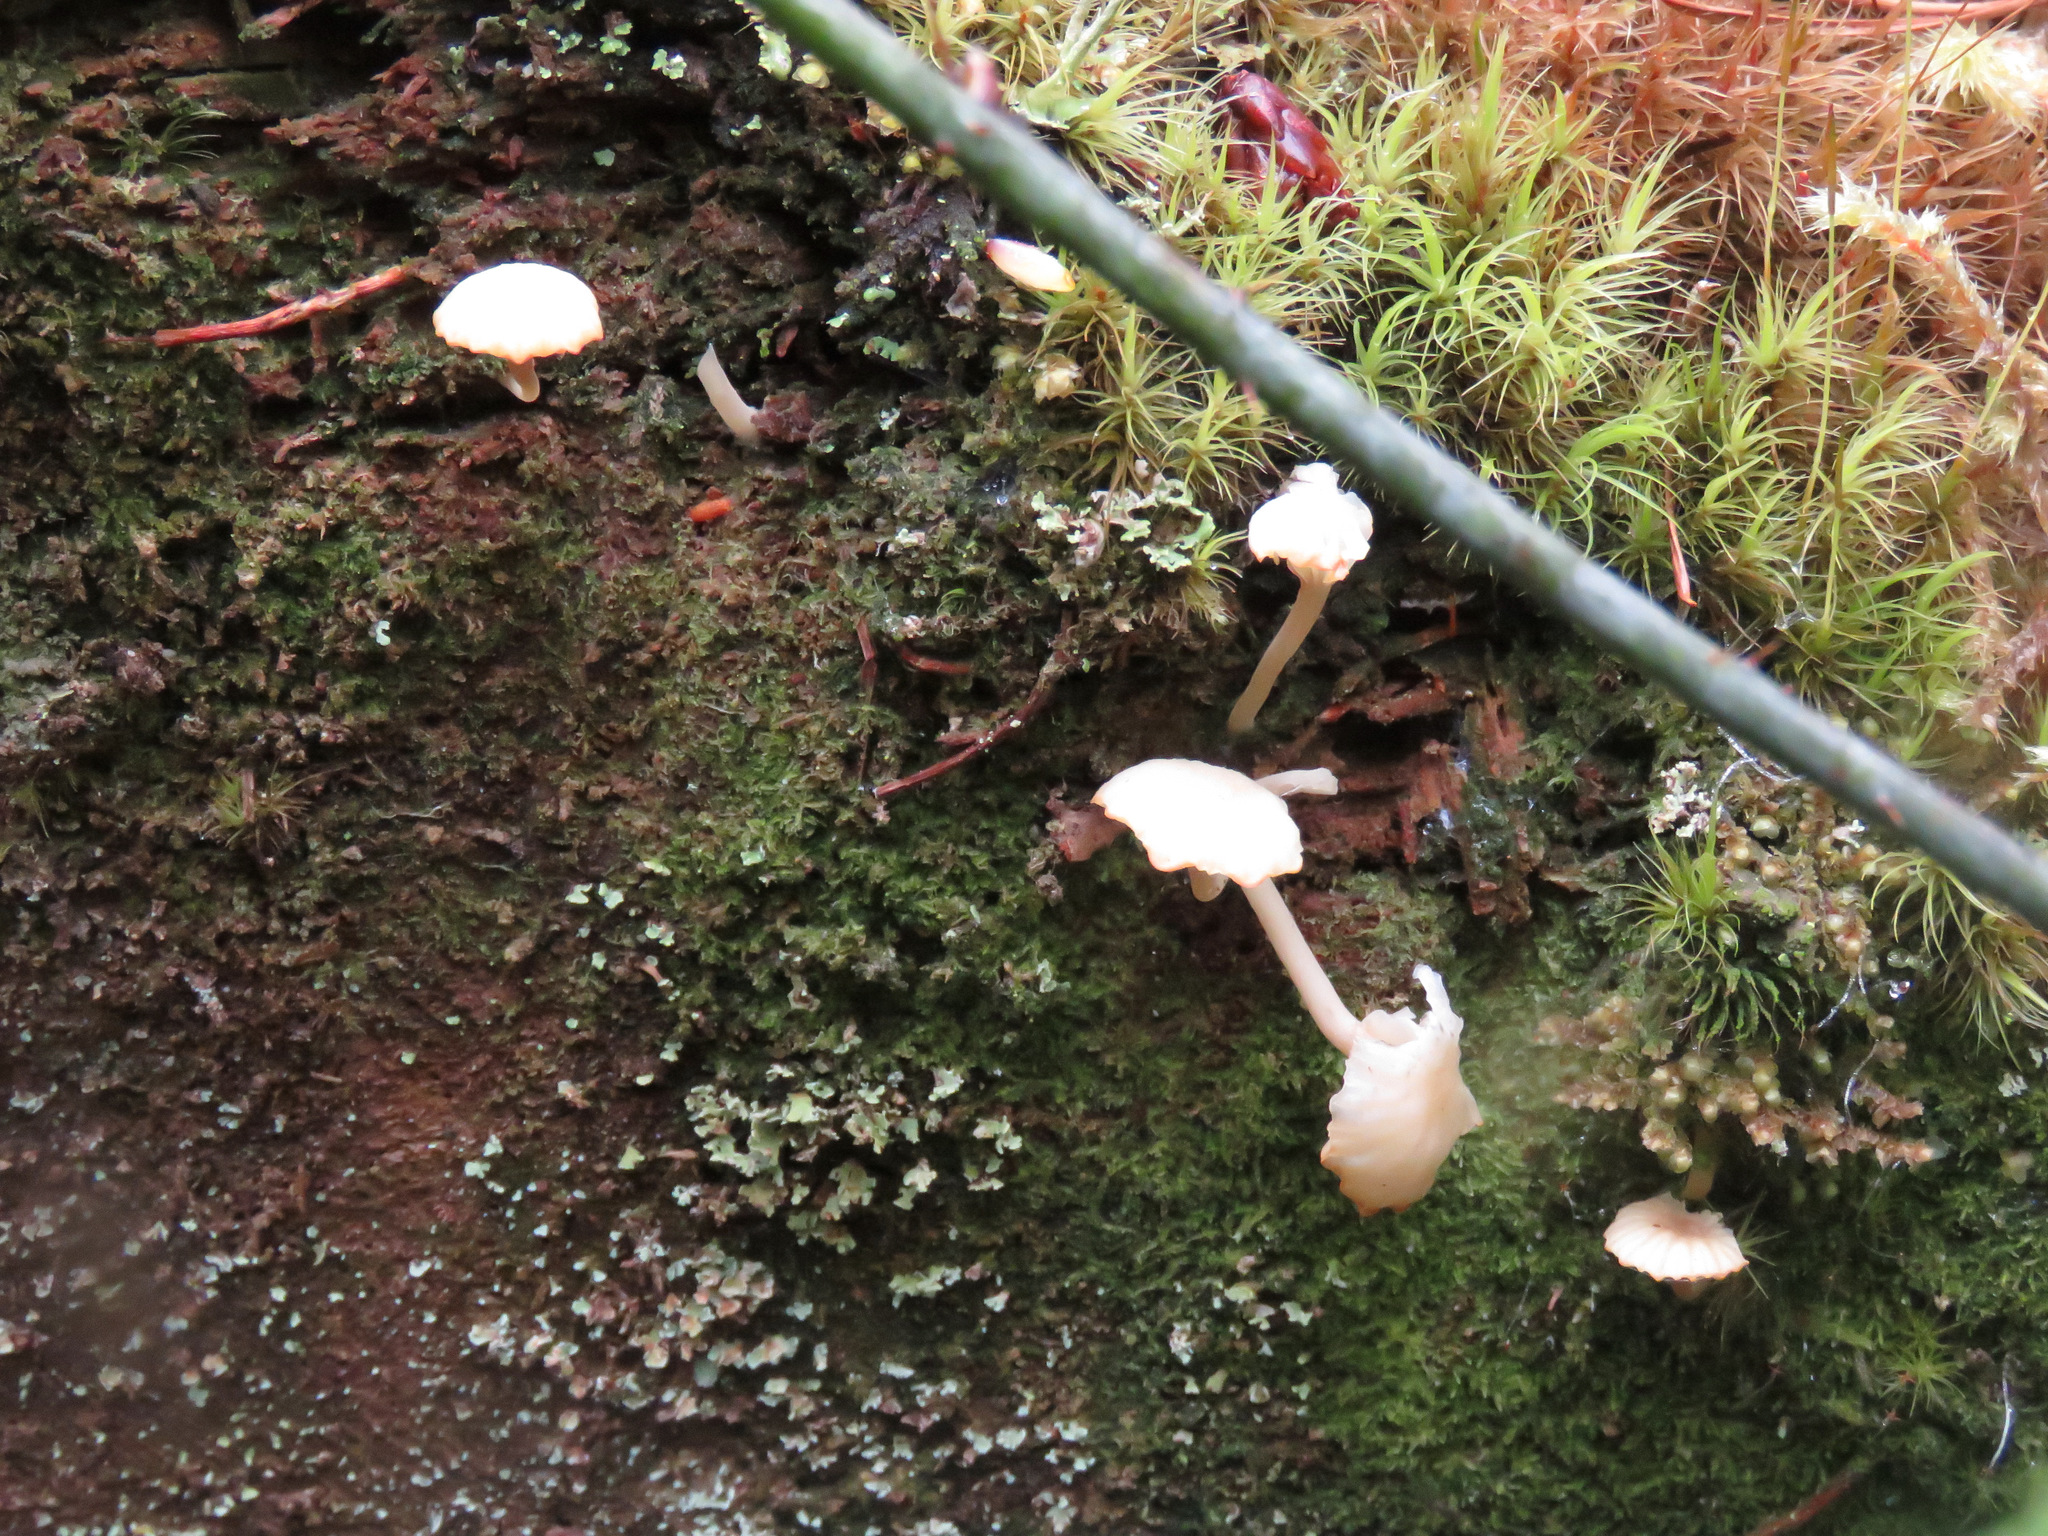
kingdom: Fungi
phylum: Basidiomycota
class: Agaricomycetes
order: Agaricales
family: Hygrophoraceae
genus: Lichenomphalia
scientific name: Lichenomphalia
